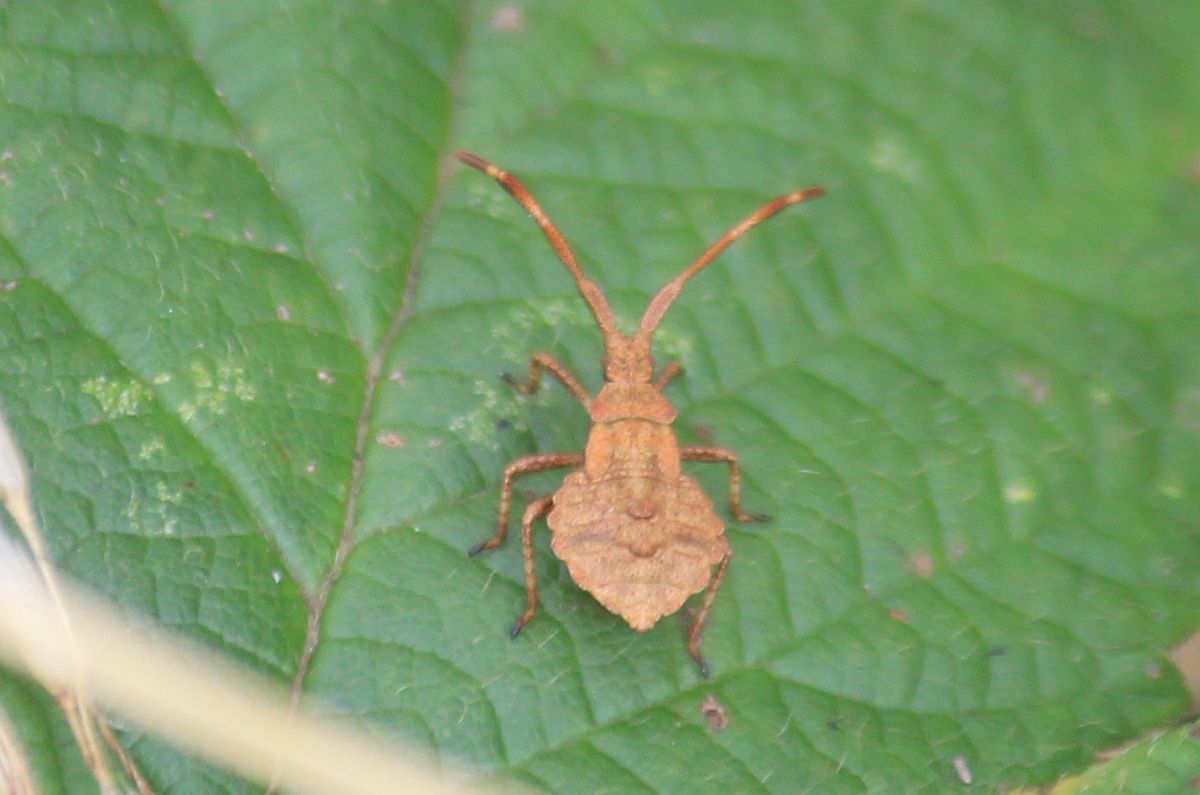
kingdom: Animalia
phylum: Arthropoda
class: Insecta
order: Hemiptera
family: Coreidae
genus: Coreus
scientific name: Coreus marginatus
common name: Dock bug
